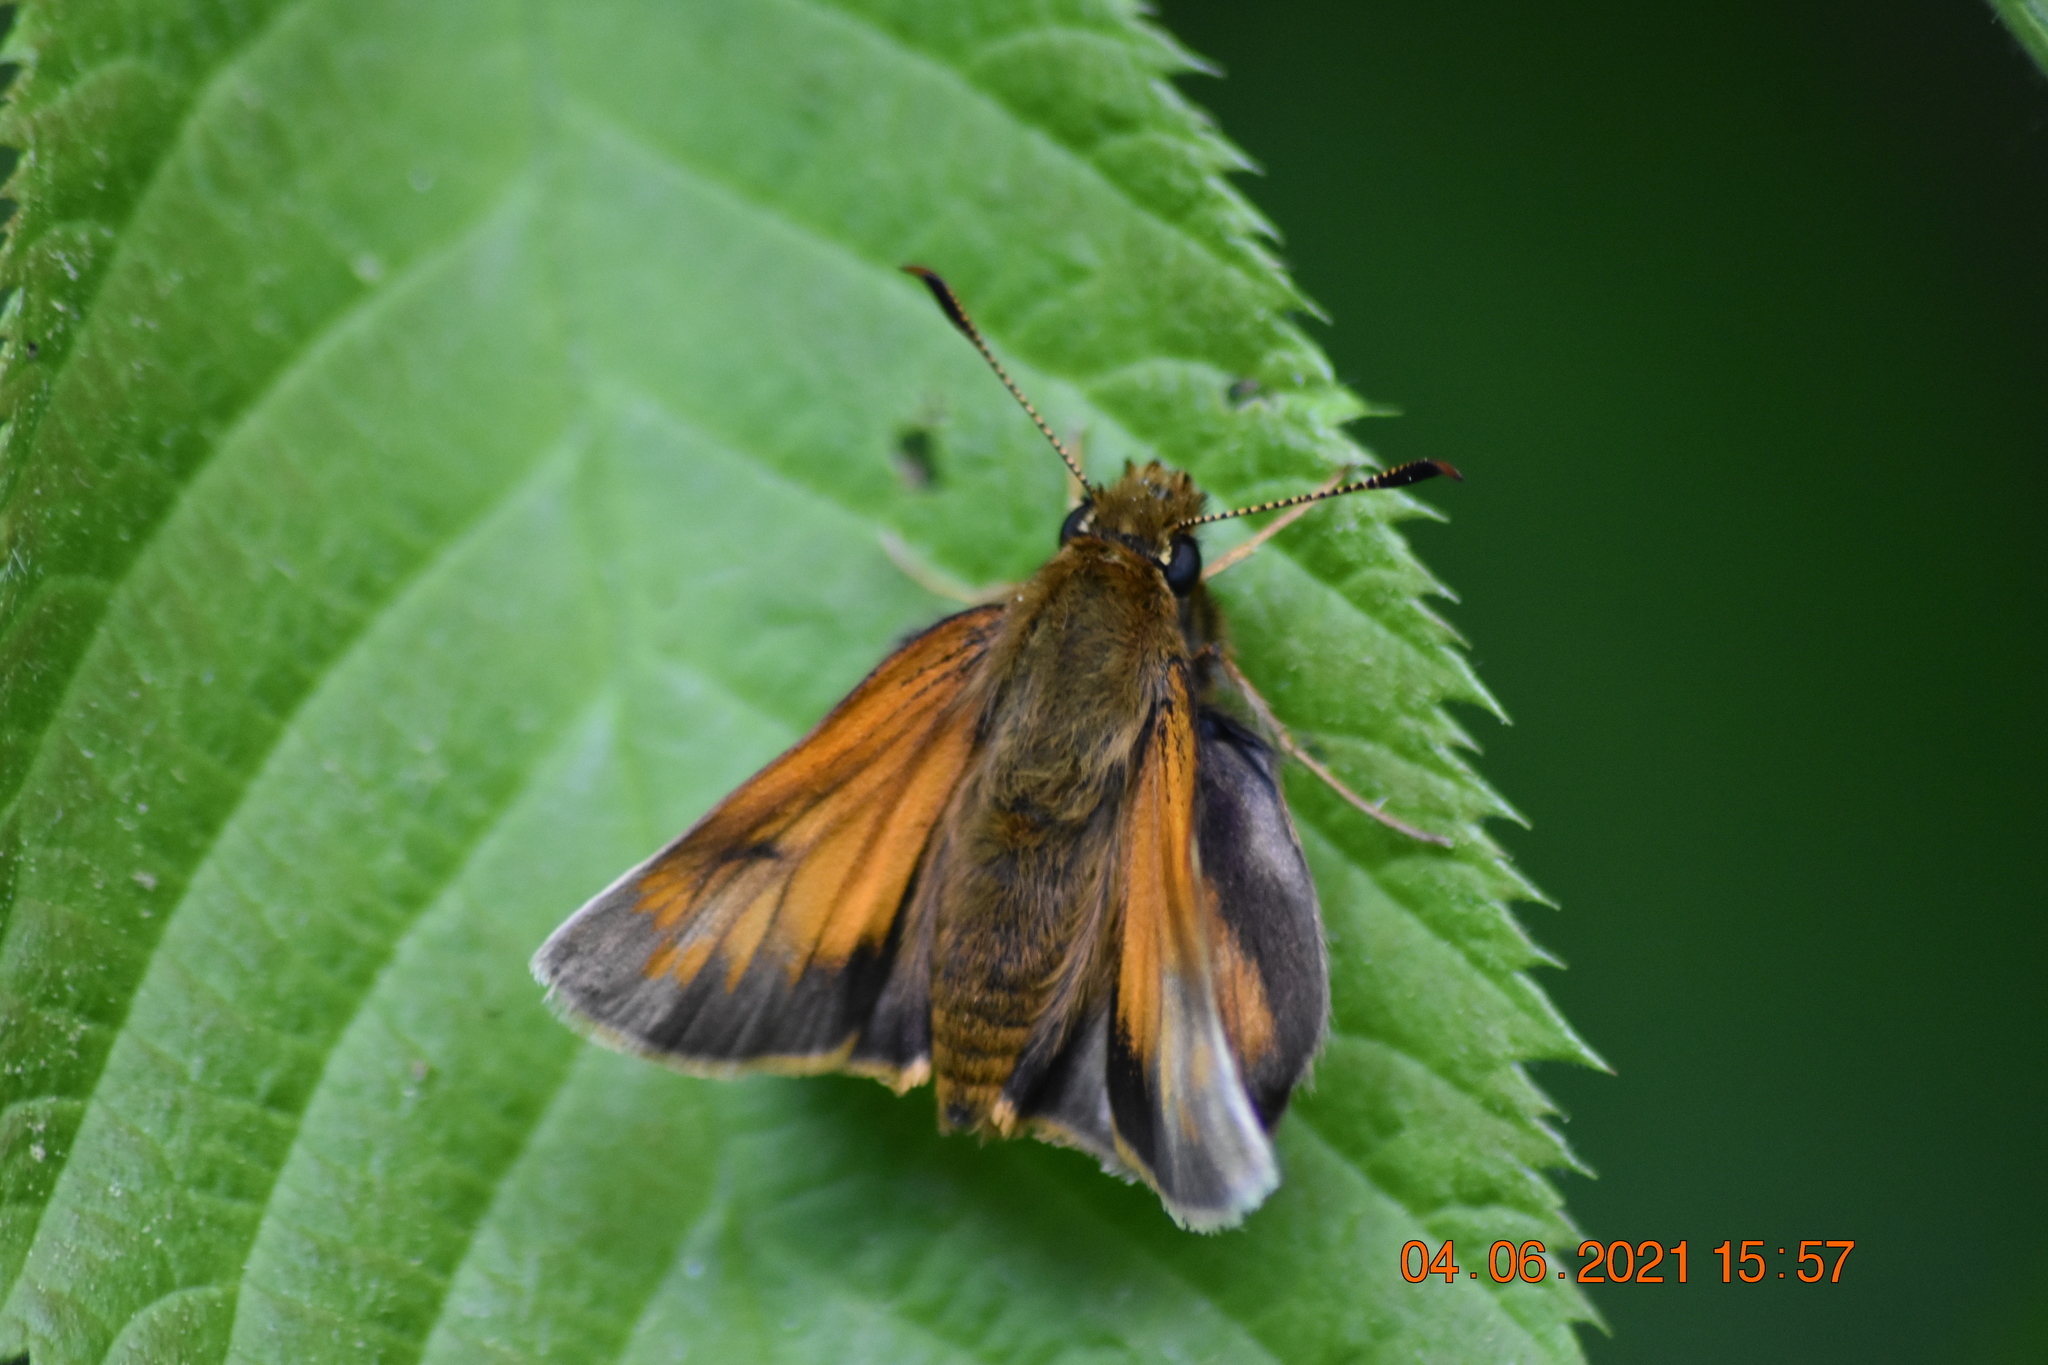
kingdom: Animalia
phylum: Arthropoda
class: Insecta
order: Lepidoptera
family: Hesperiidae
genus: Lon
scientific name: Lon hobomok
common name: Hobomok skipper
